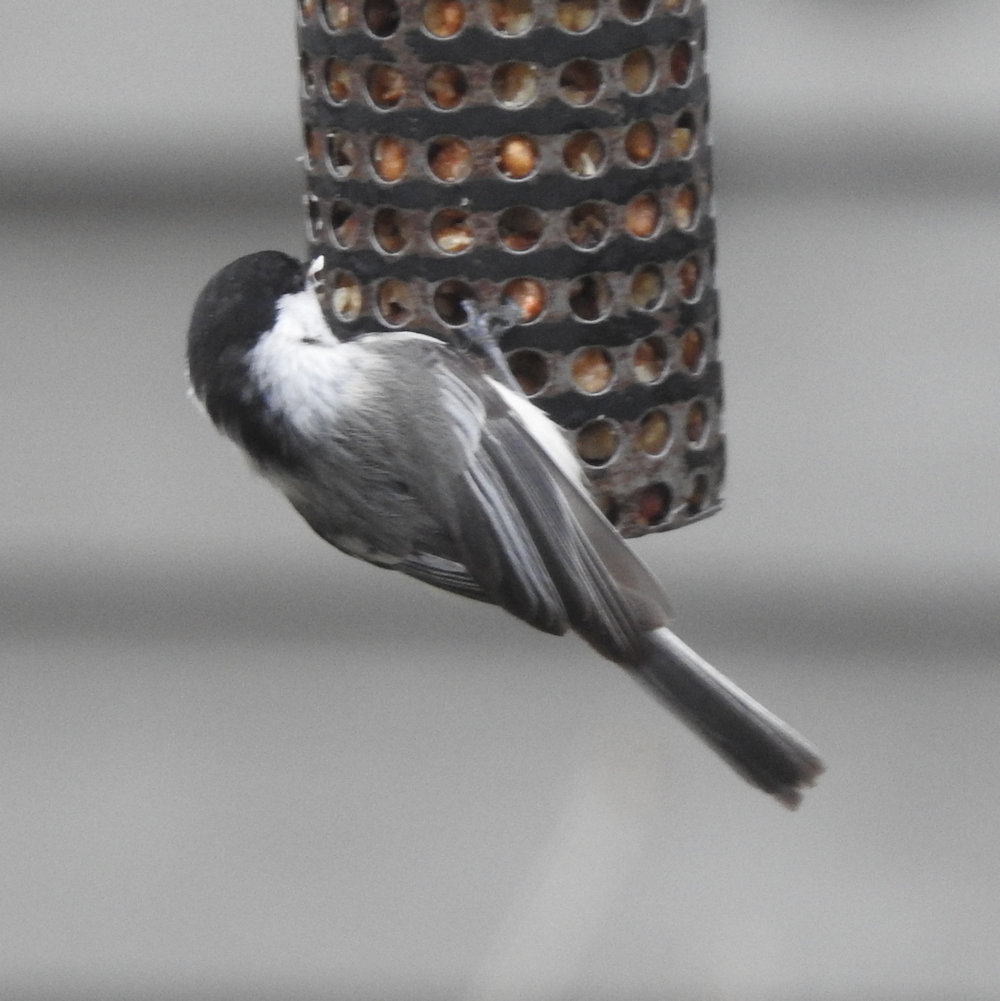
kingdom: Animalia
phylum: Chordata
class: Aves
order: Passeriformes
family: Paridae
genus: Poecile
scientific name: Poecile atricapillus
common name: Black-capped chickadee
